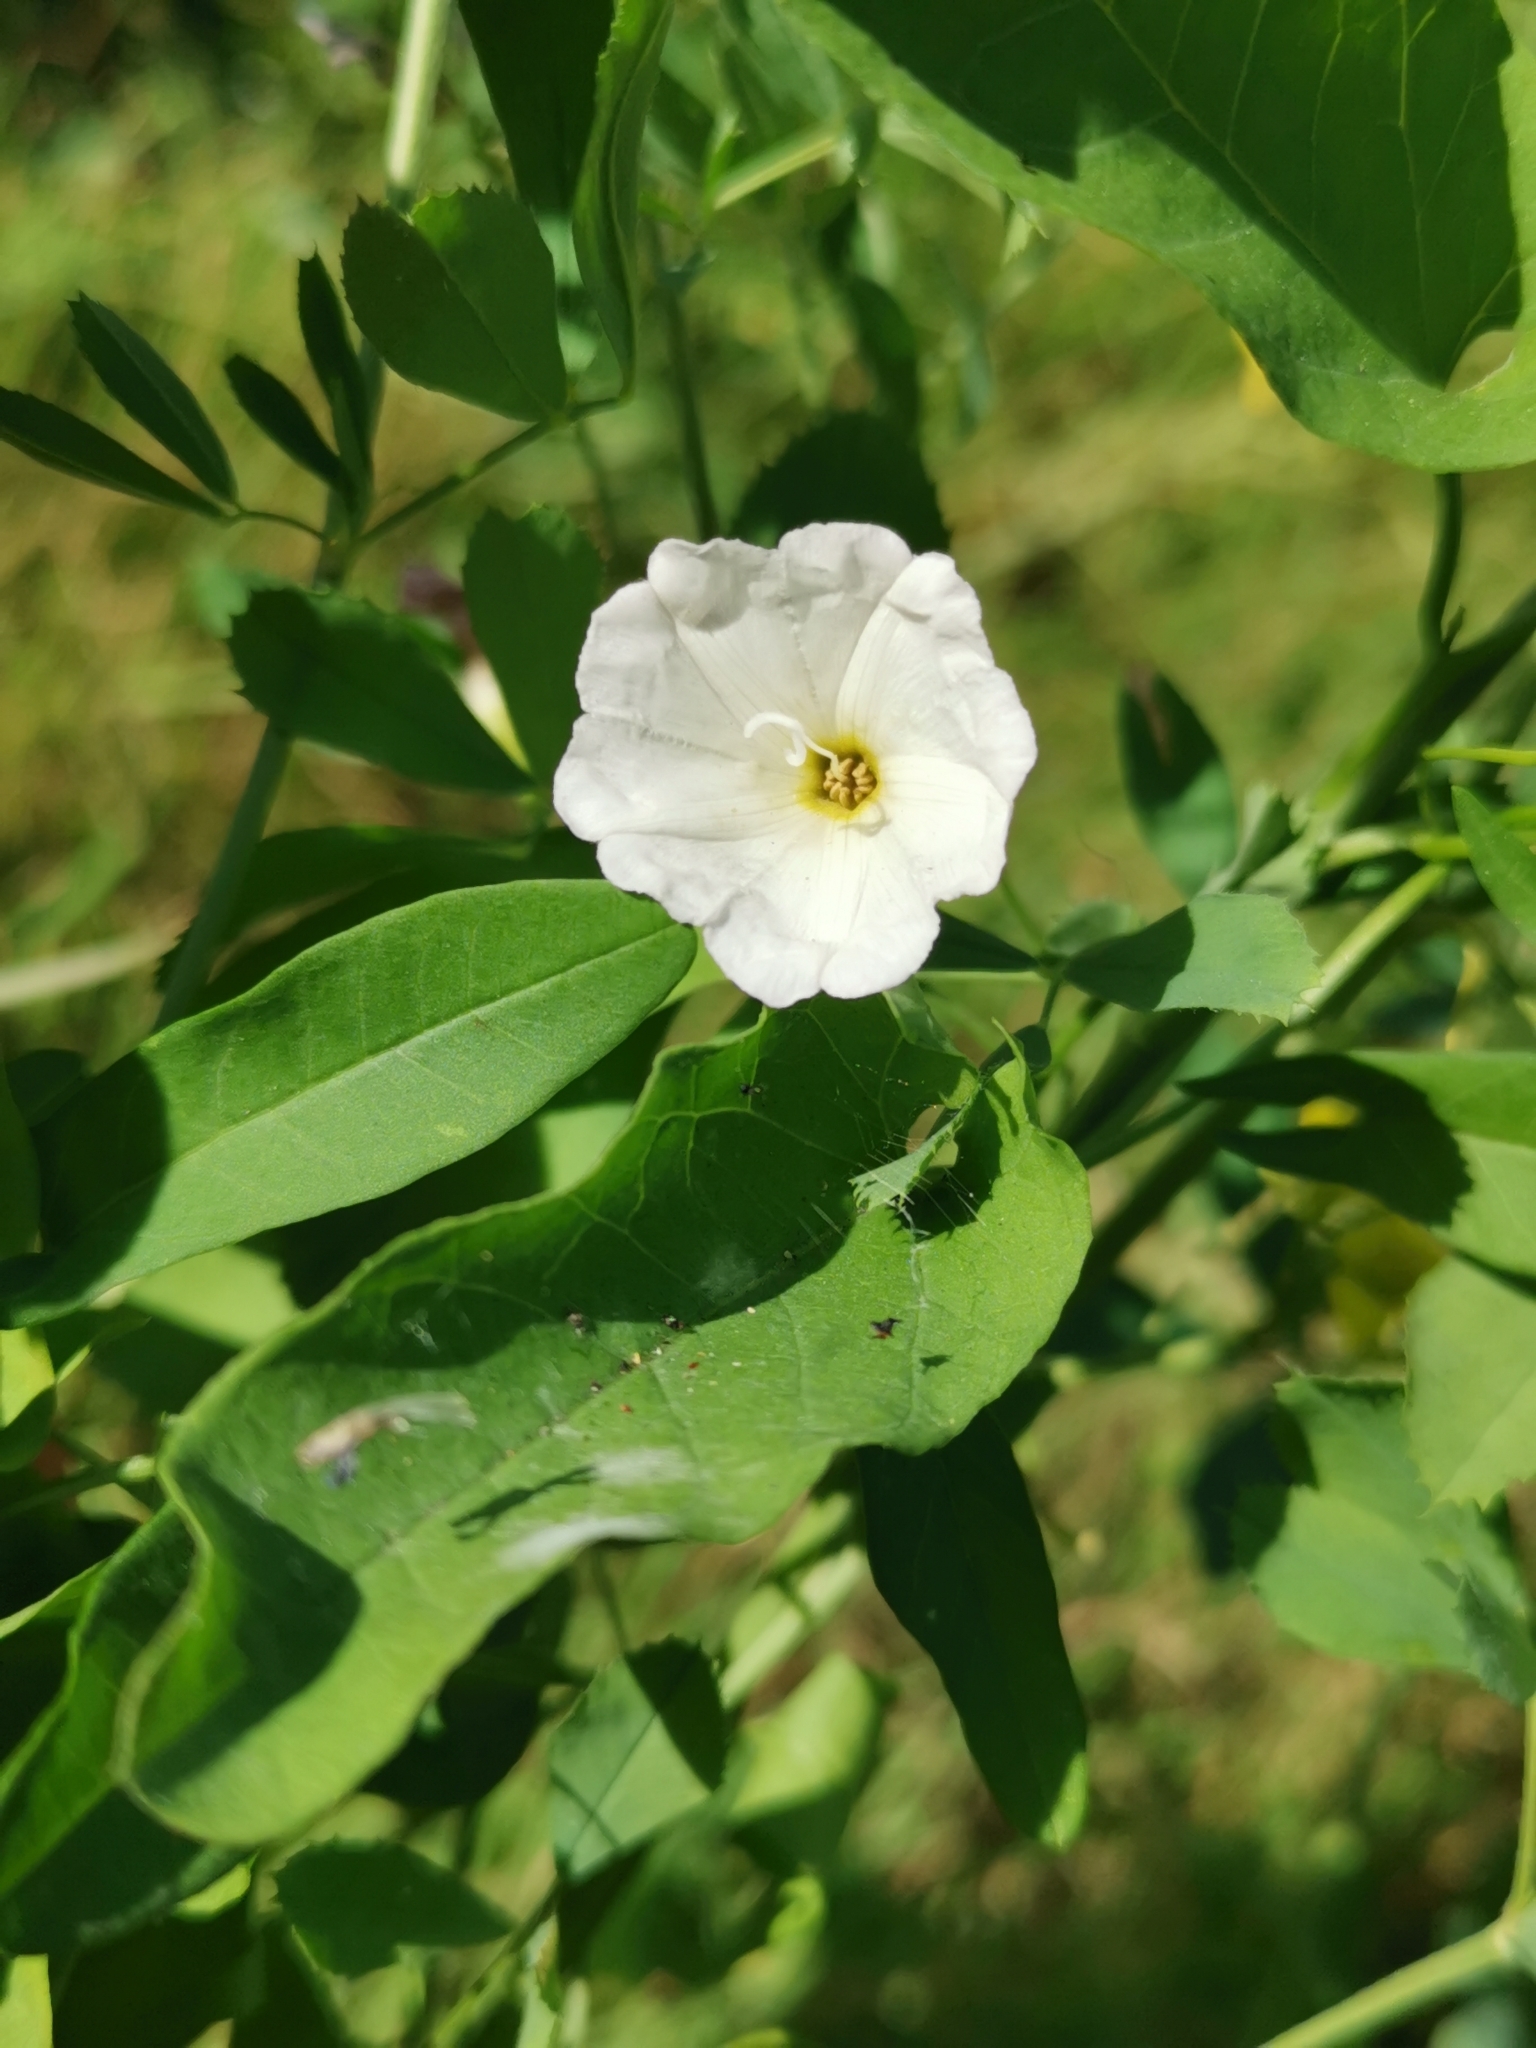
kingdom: Plantae
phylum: Tracheophyta
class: Magnoliopsida
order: Solanales
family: Convolvulaceae
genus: Convolvulus
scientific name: Convolvulus arvensis
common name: Field bindweed
